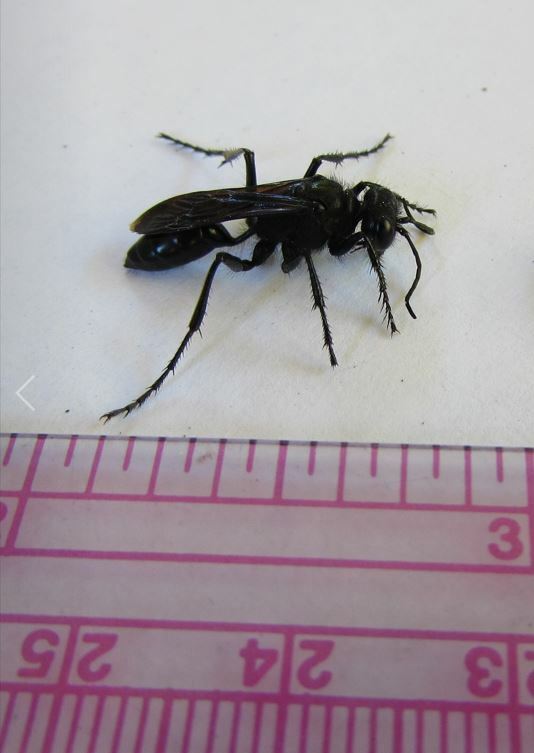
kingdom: Animalia
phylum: Arthropoda
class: Insecta
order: Hymenoptera
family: Sphecidae
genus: Podalonia
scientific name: Podalonia
